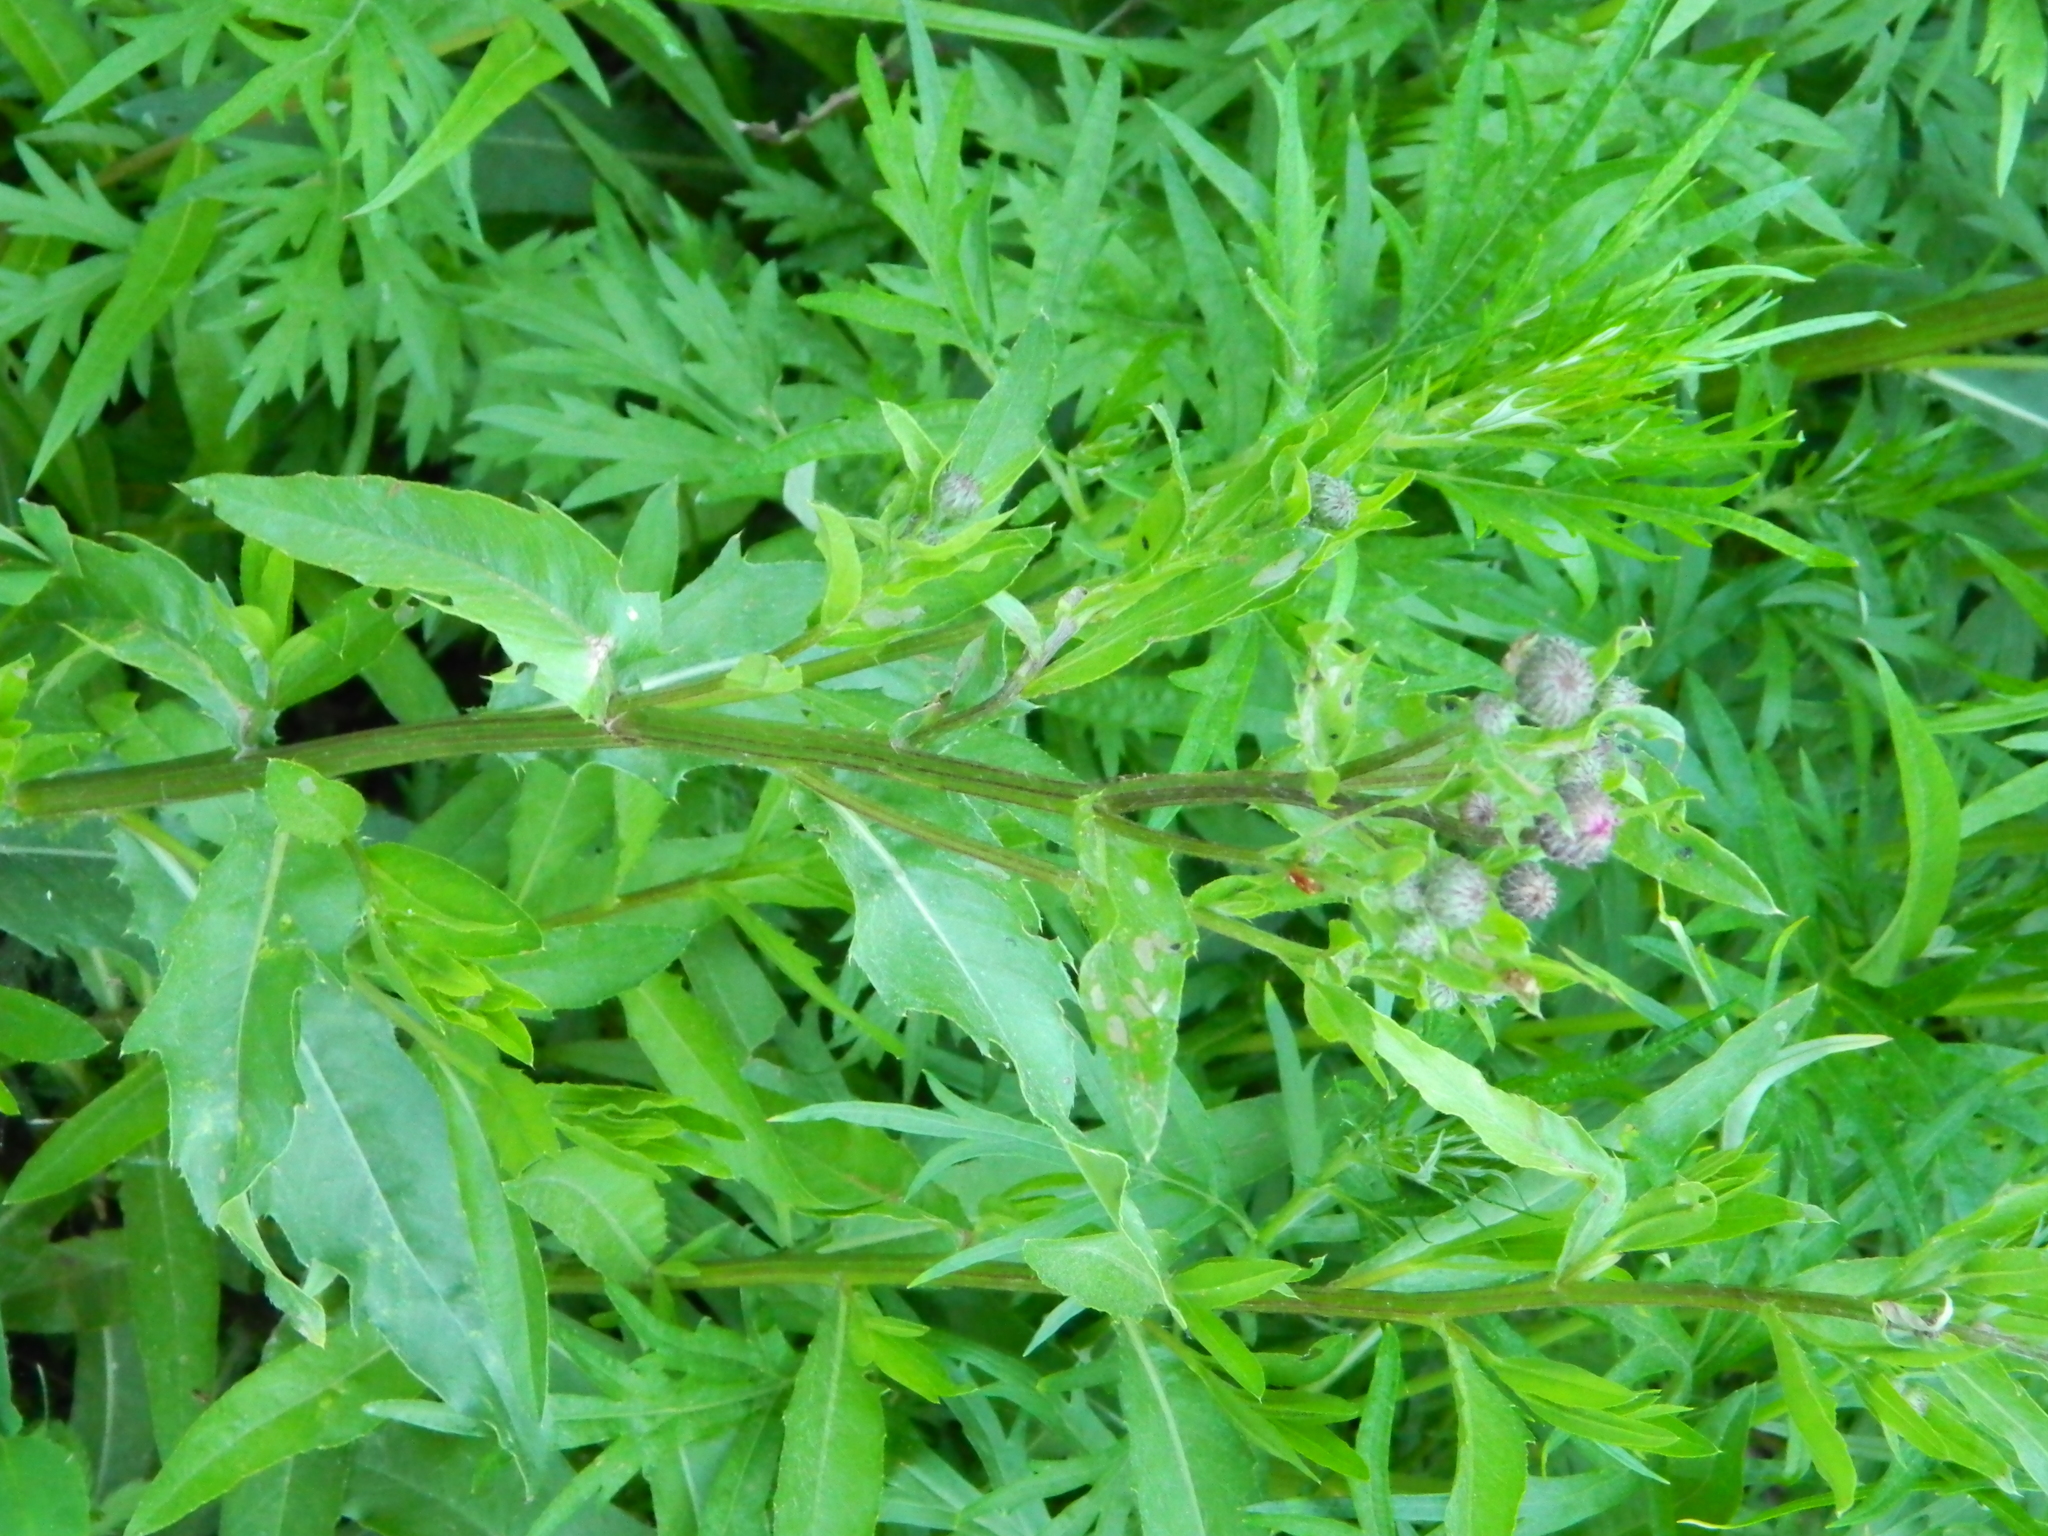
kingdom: Plantae
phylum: Tracheophyta
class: Magnoliopsida
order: Asterales
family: Asteraceae
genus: Cirsium
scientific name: Cirsium arvense
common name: Creeping thistle
